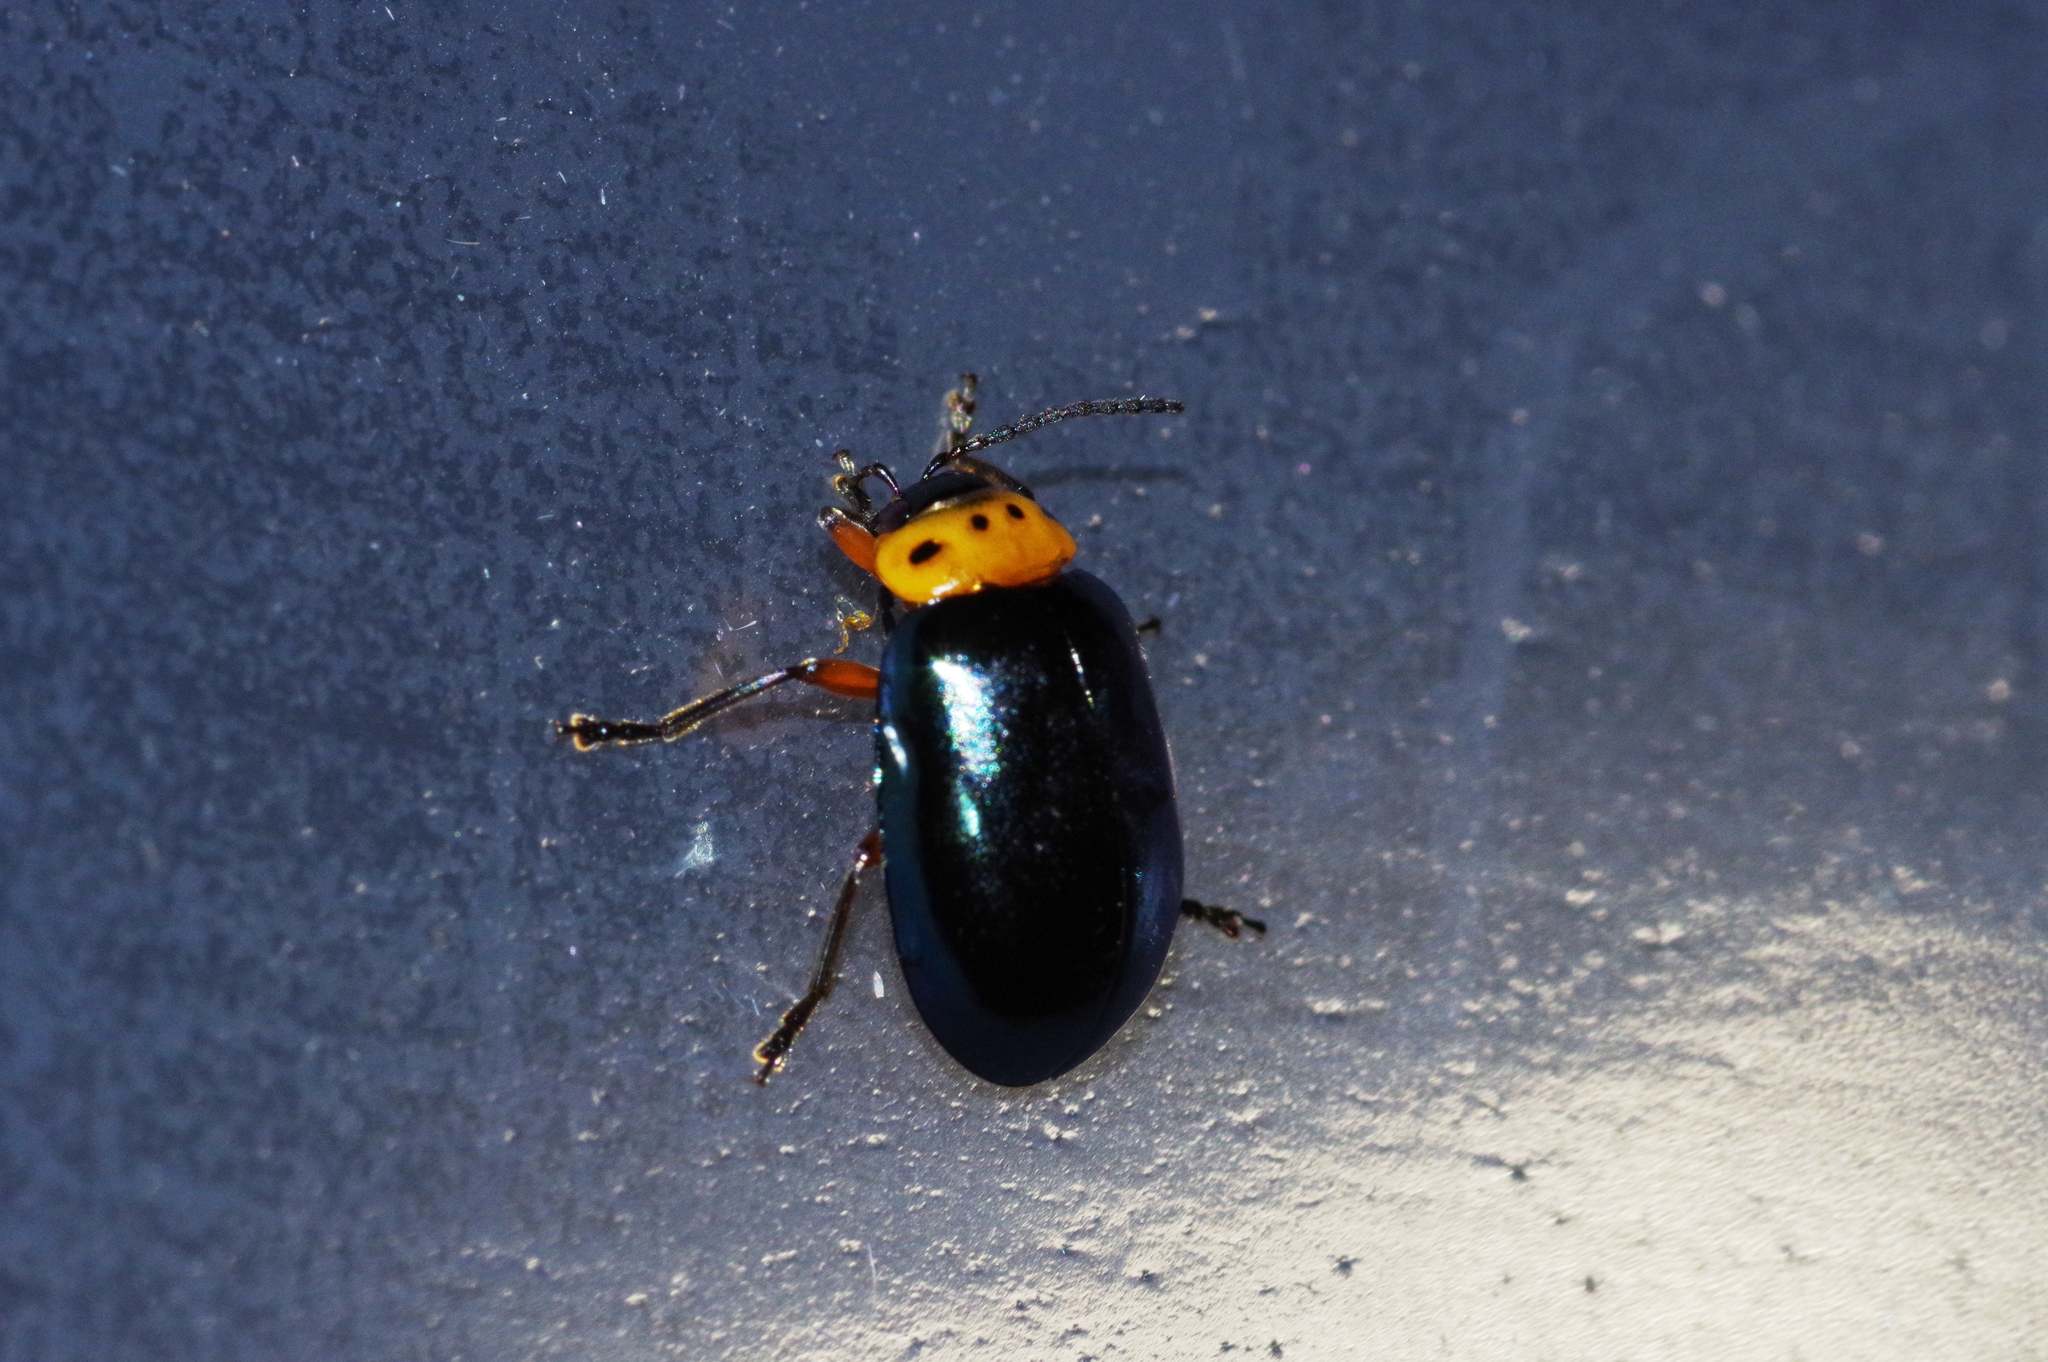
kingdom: Animalia
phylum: Arthropoda
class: Insecta
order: Coleoptera
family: Chrysomelidae
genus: Morphosphaera
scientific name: Morphosphaera caerulea
